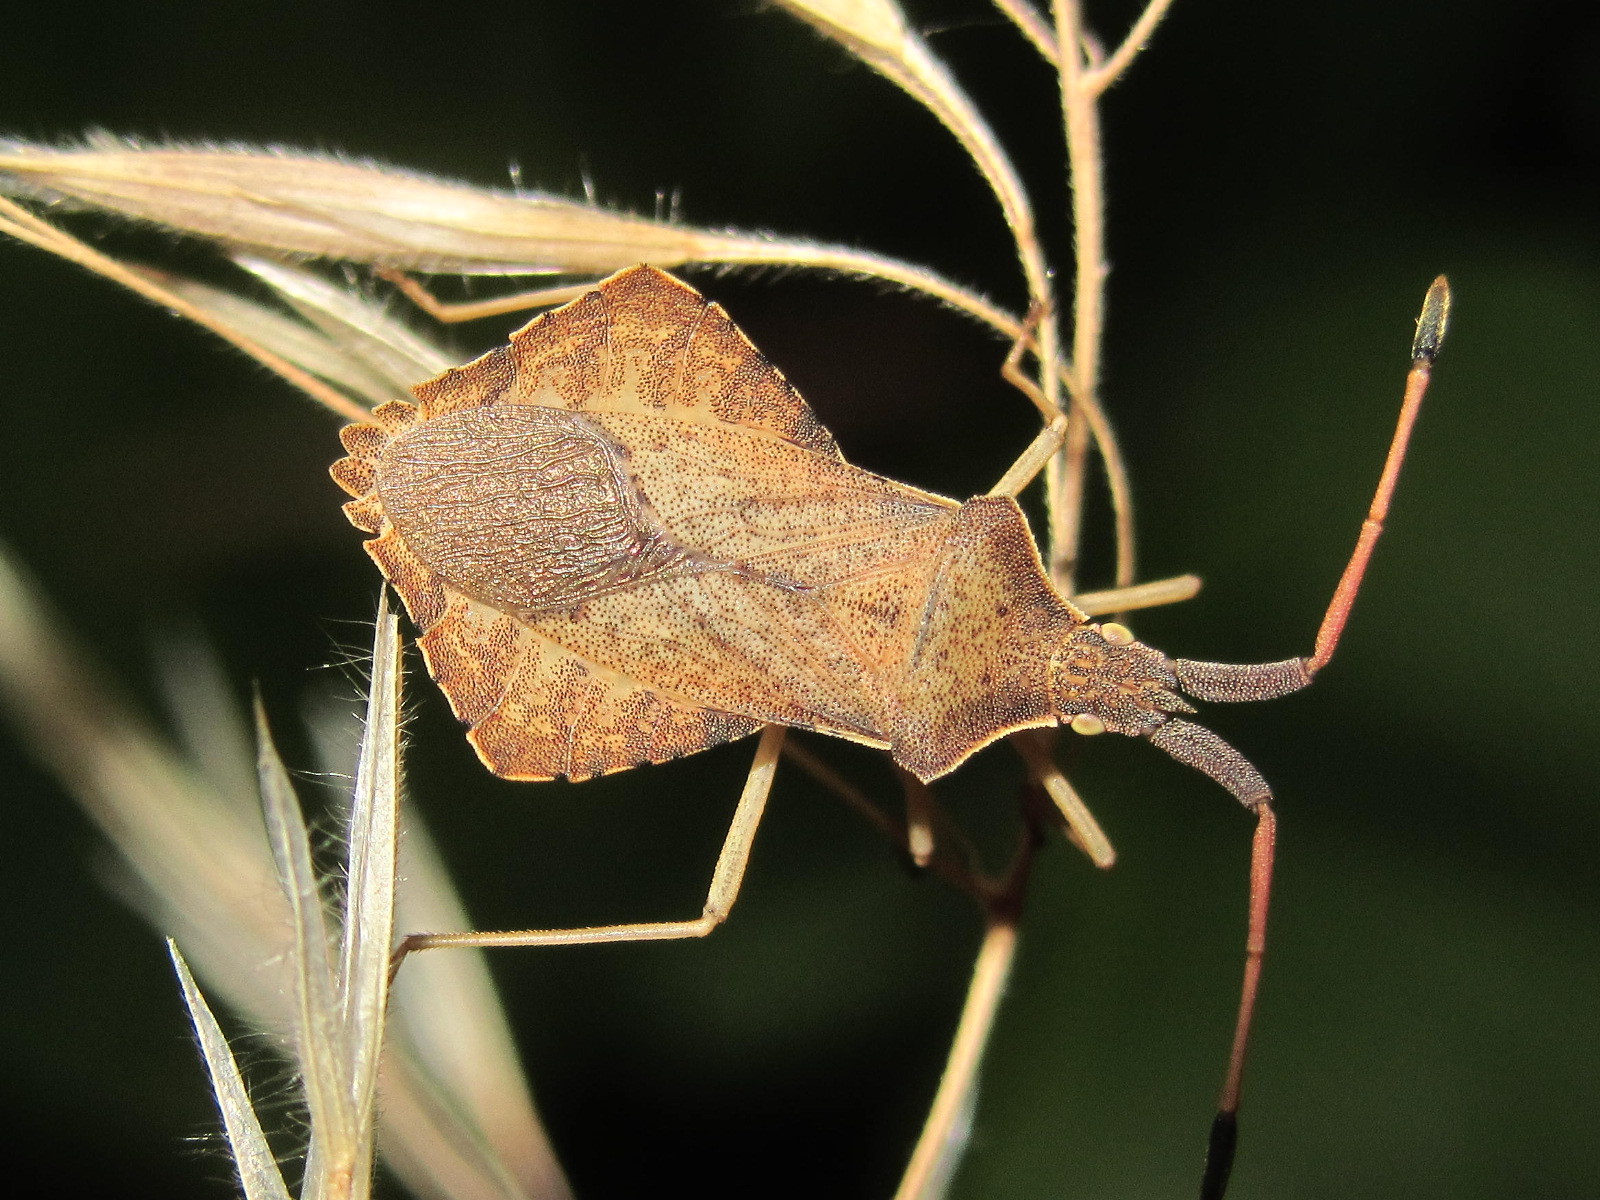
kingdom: Animalia
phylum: Arthropoda
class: Insecta
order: Hemiptera
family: Coreidae
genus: Syromastus
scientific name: Syromastus rhombeus
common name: Rhombic leatherbug
